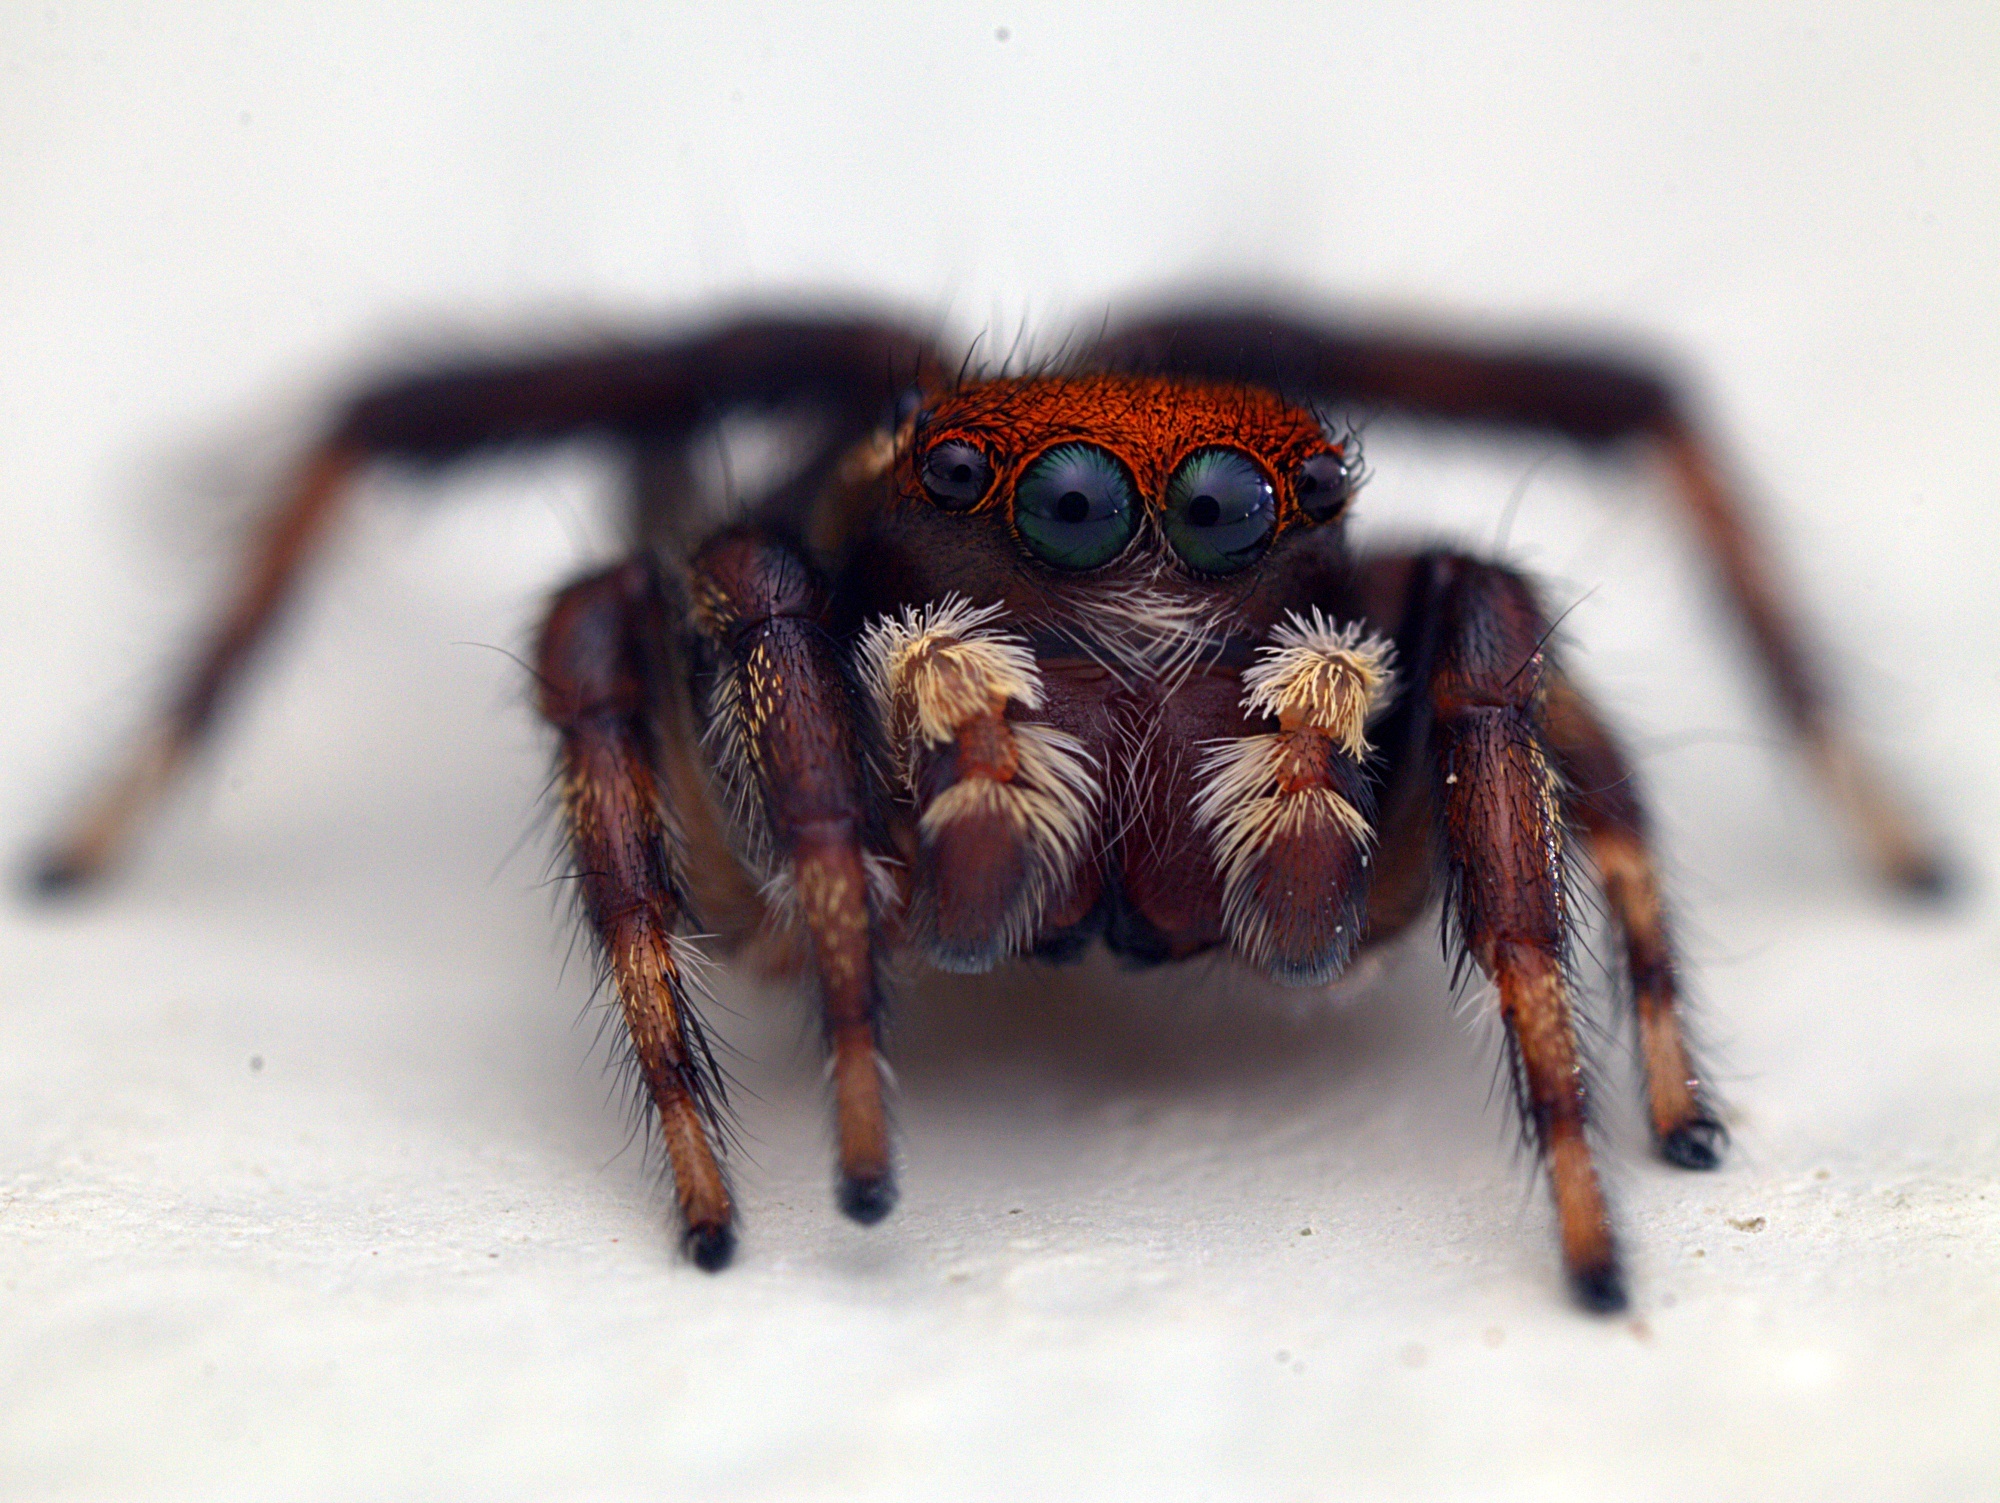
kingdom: Animalia
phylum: Arthropoda
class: Arachnida
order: Araneae
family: Salticidae
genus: Maratus
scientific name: Maratus griseus
